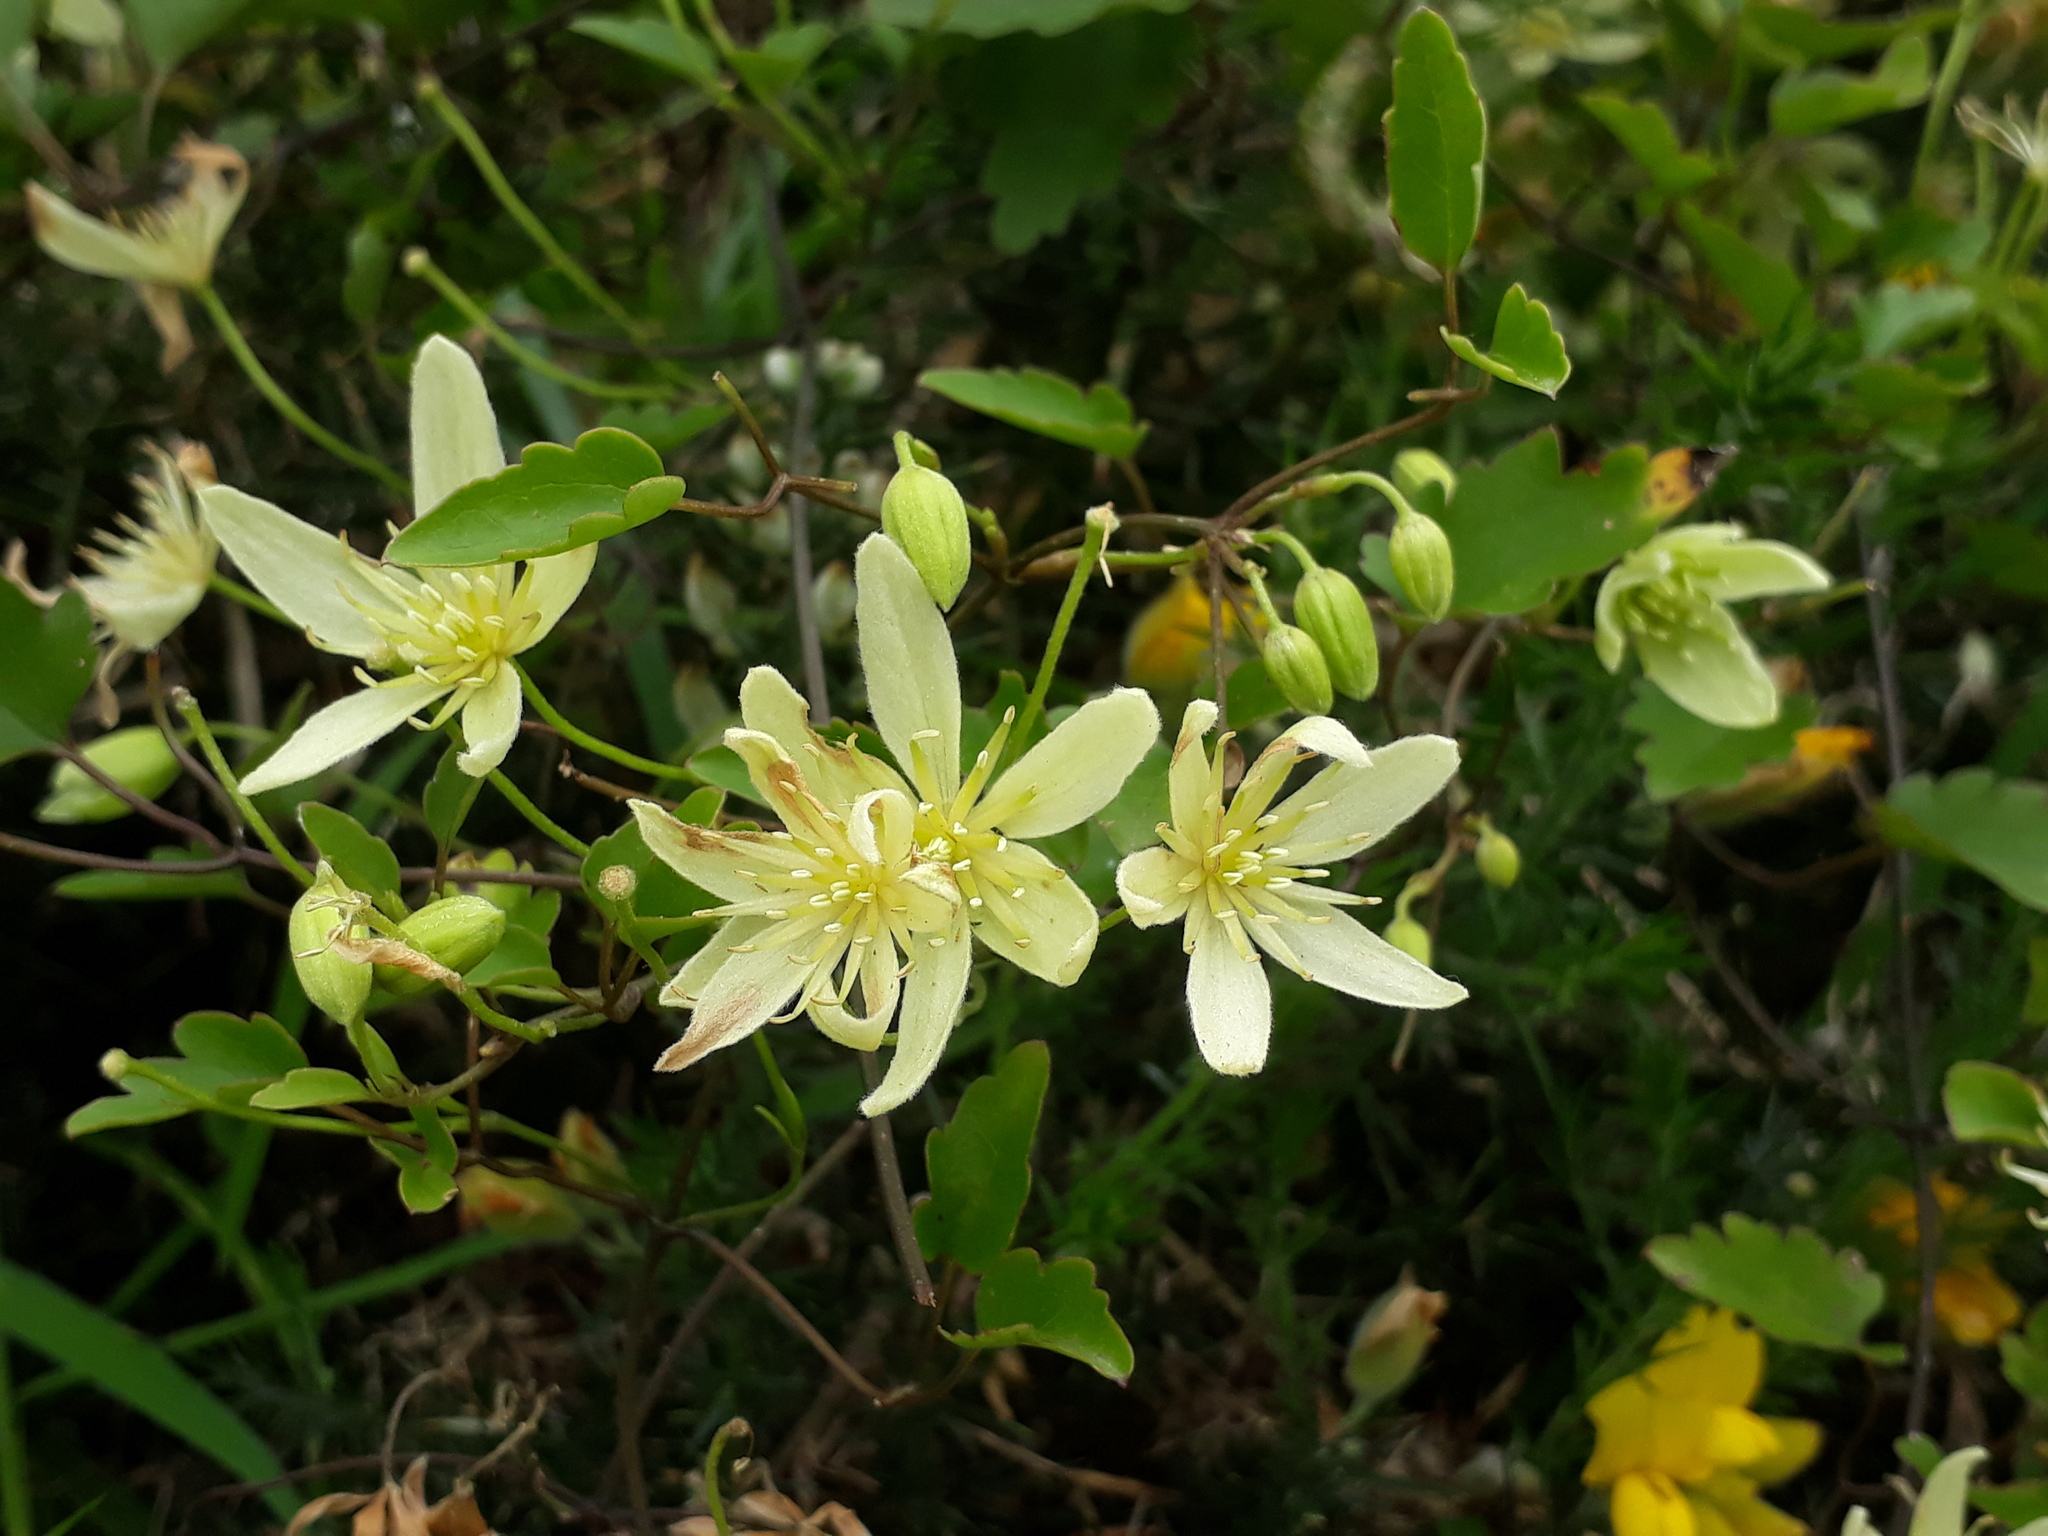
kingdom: Plantae
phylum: Tracheophyta
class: Magnoliopsida
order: Ranunculales
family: Ranunculaceae
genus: Clematis
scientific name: Clematis forsteri
